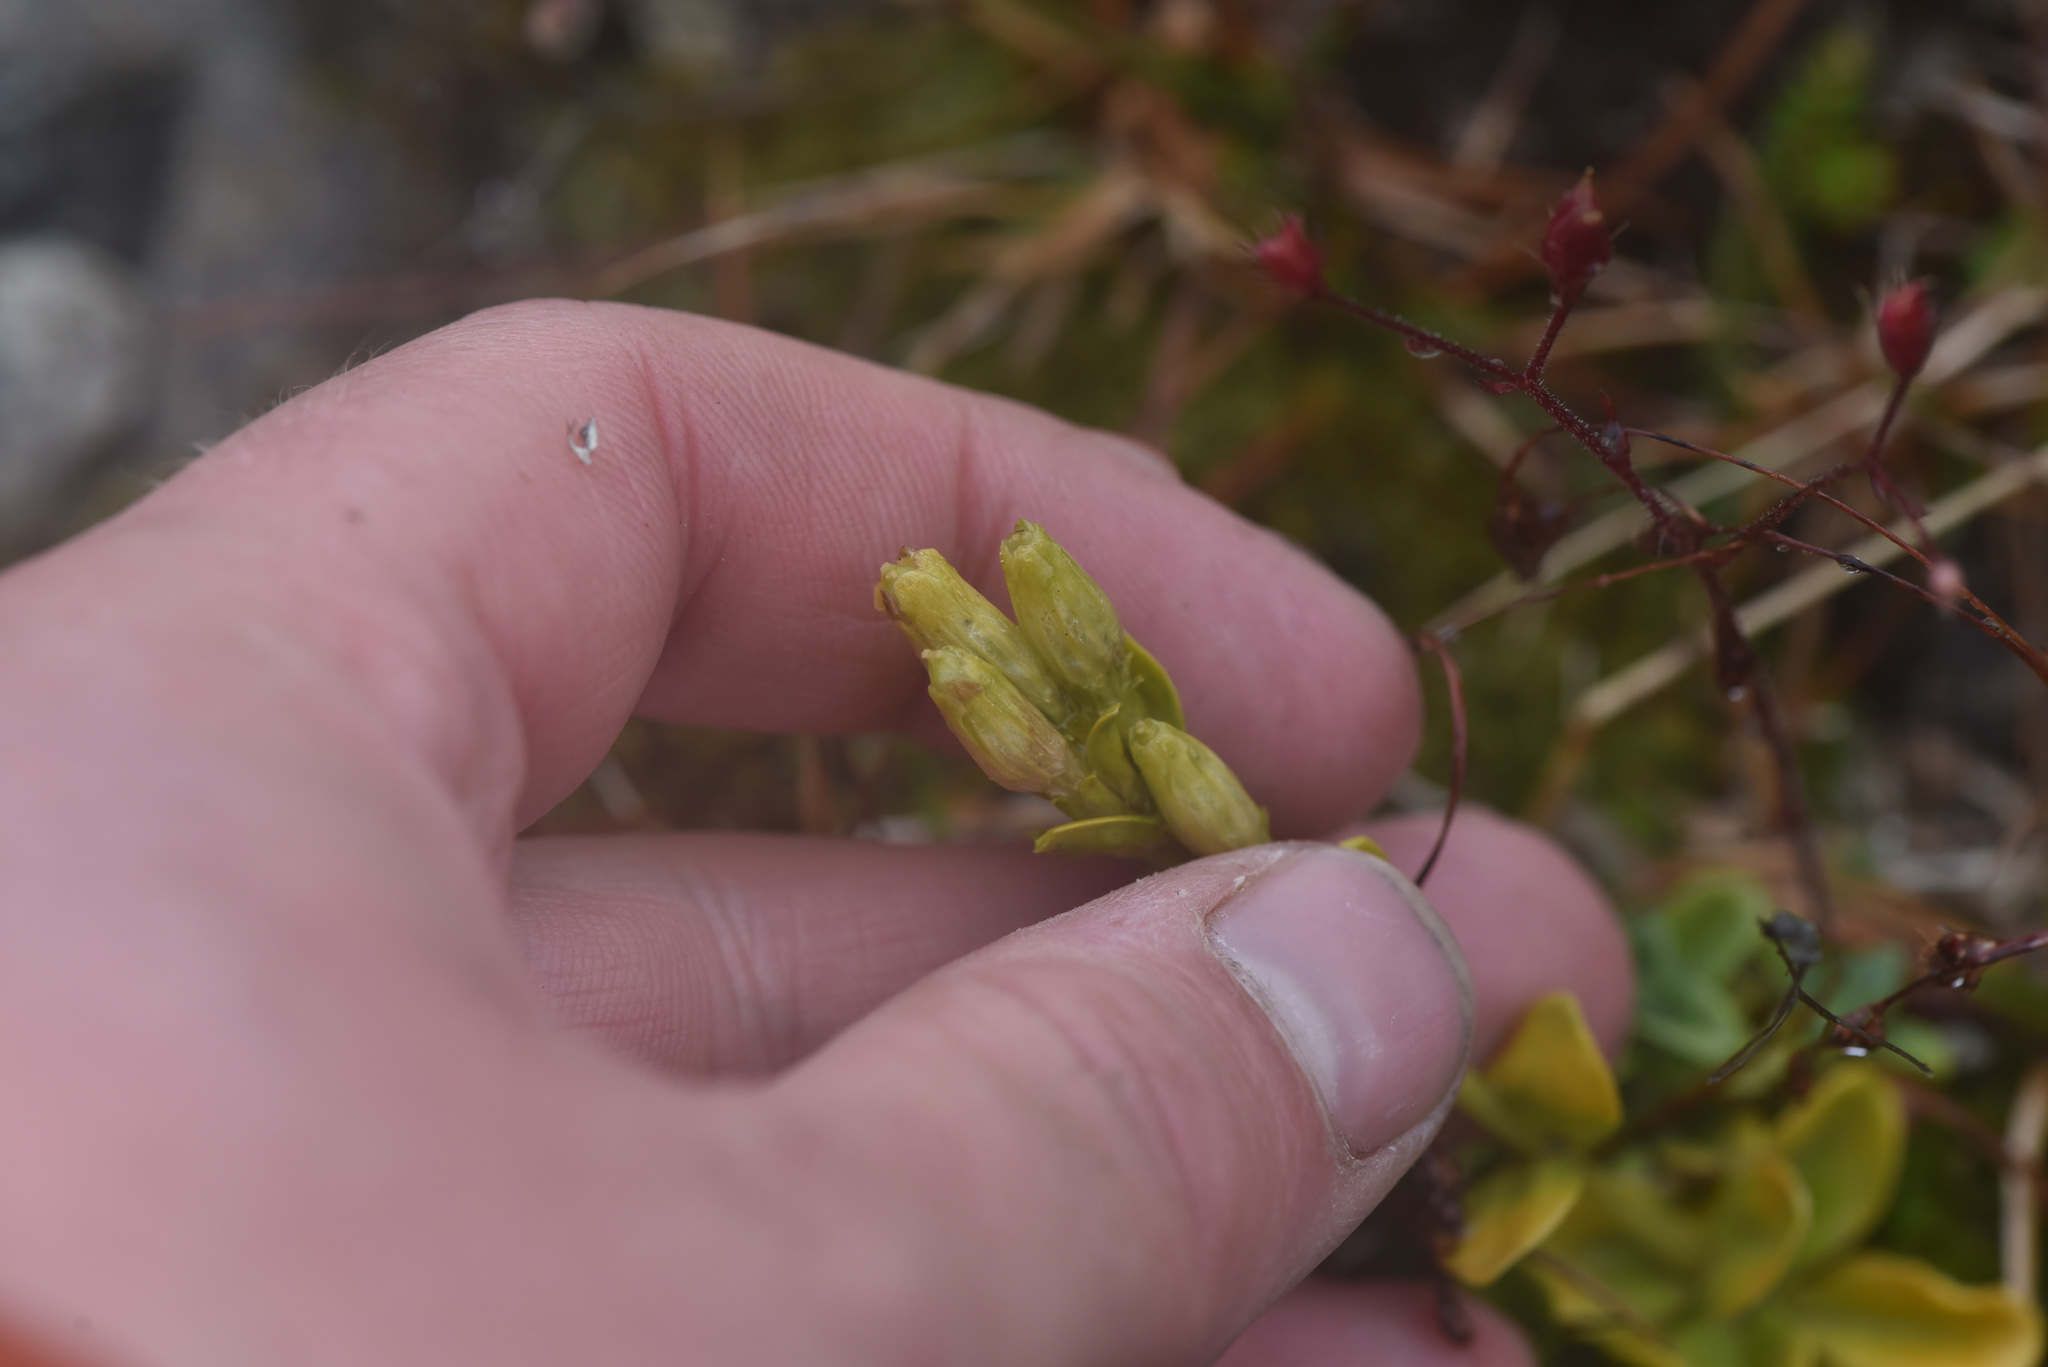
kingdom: Plantae
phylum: Tracheophyta
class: Magnoliopsida
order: Gentianales
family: Gentianaceae
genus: Gentiana
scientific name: Gentiana glauca
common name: Alpine gentian
